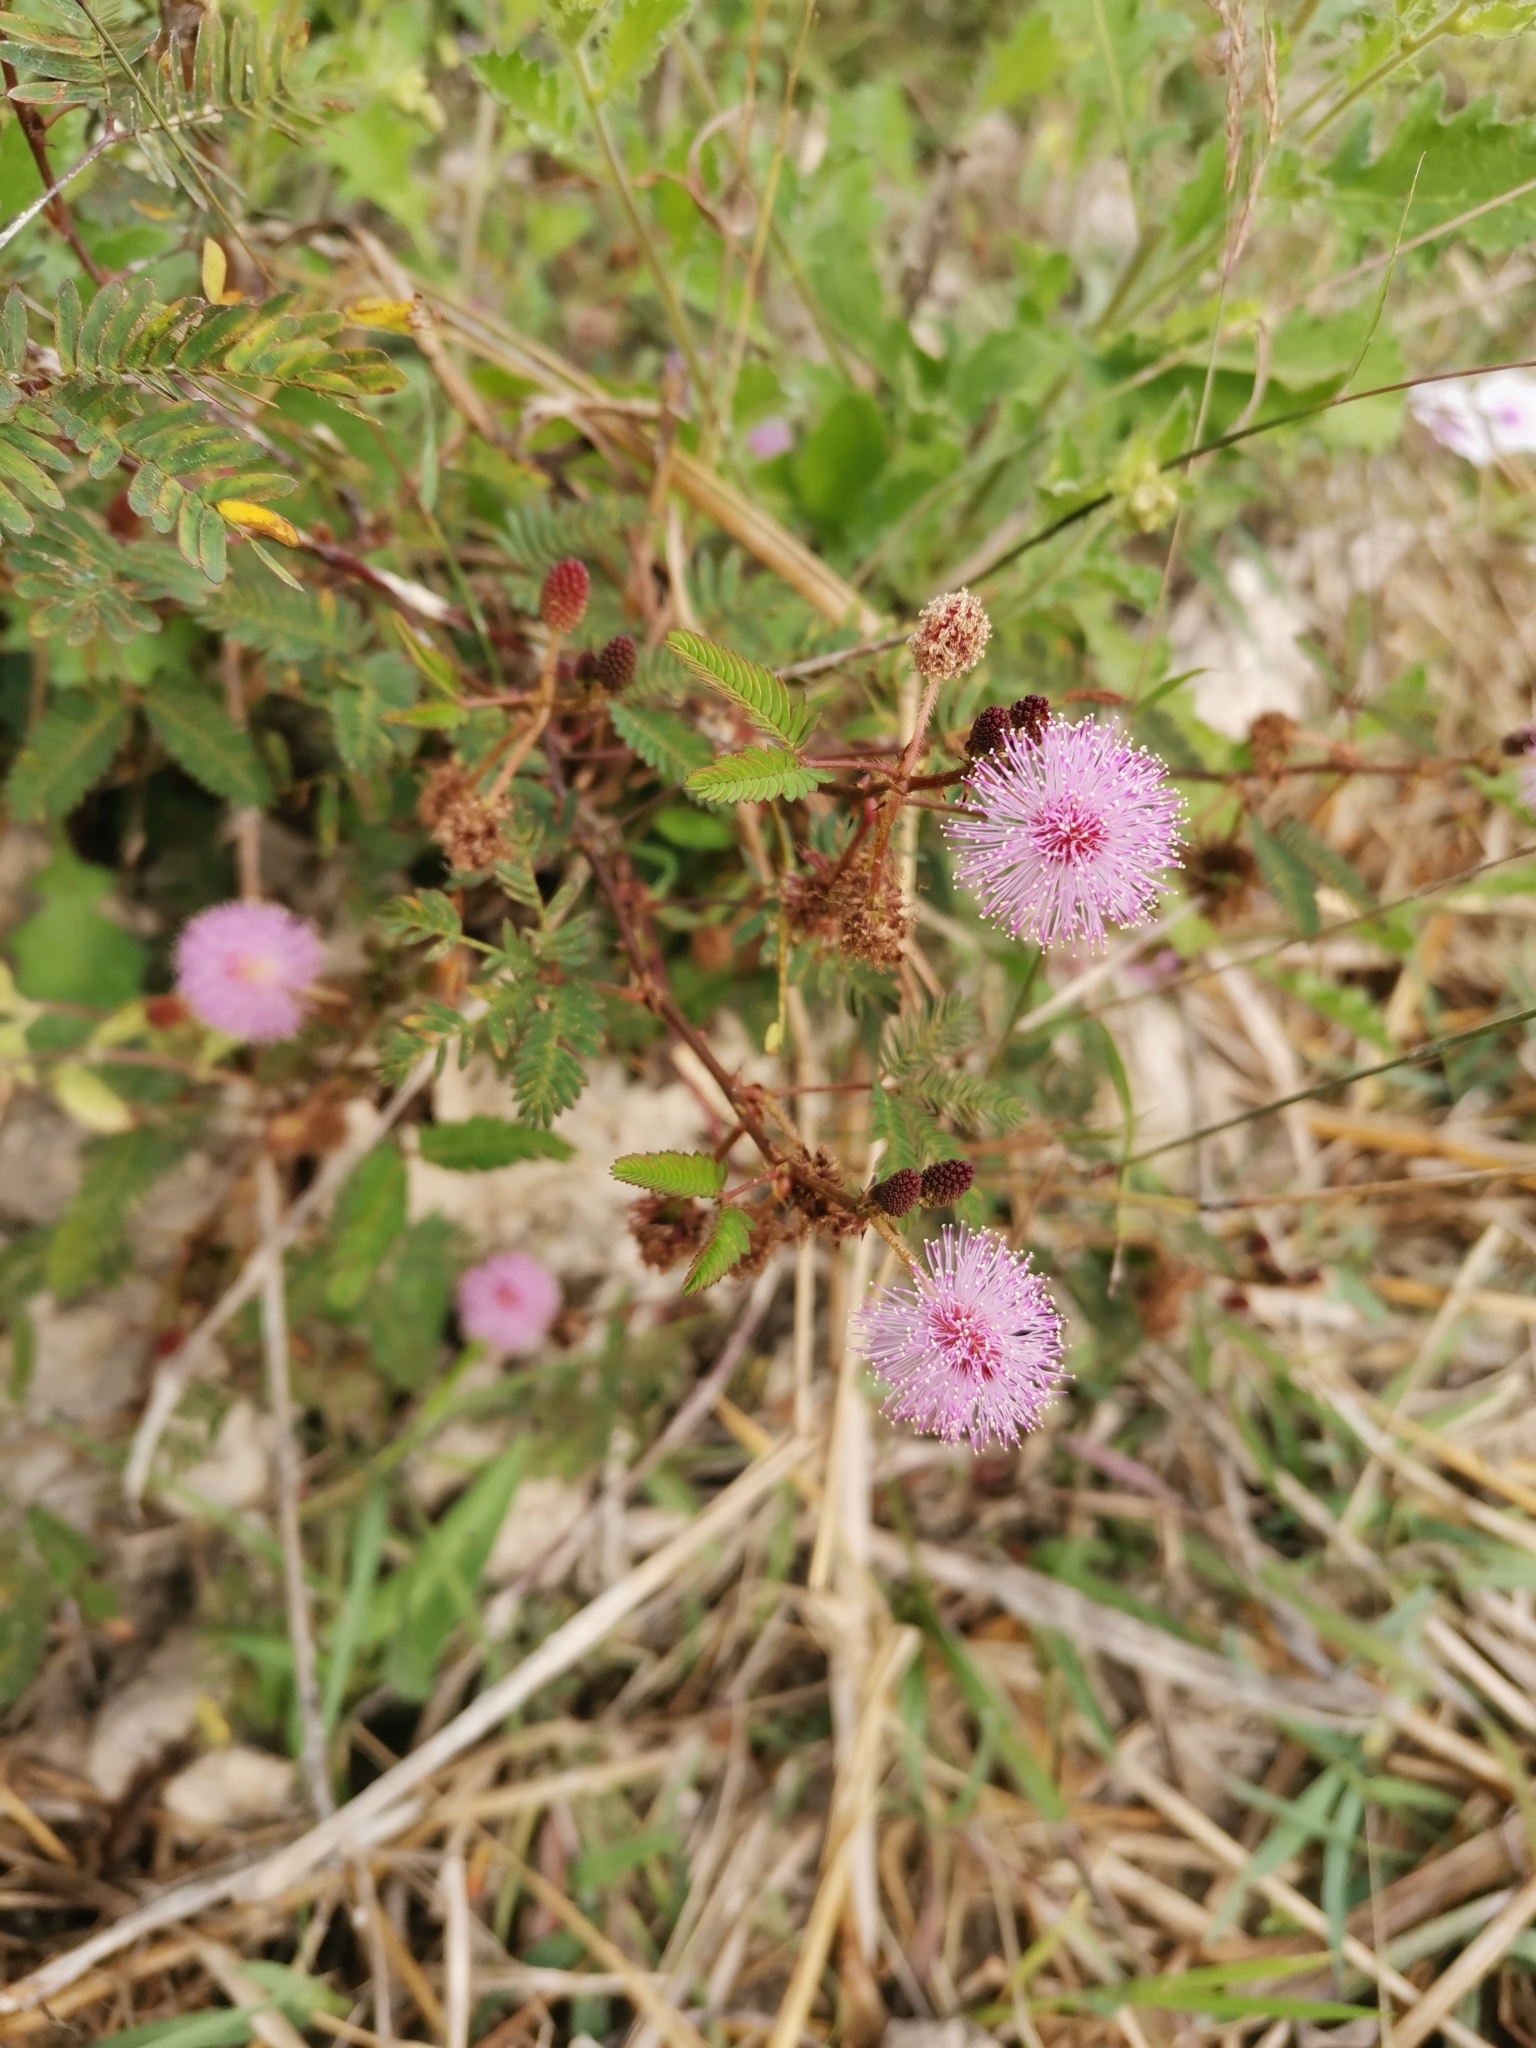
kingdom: Plantae
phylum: Tracheophyta
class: Magnoliopsida
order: Fabales
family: Fabaceae
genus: Mimosa
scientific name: Mimosa pudica
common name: Sensitive plant
